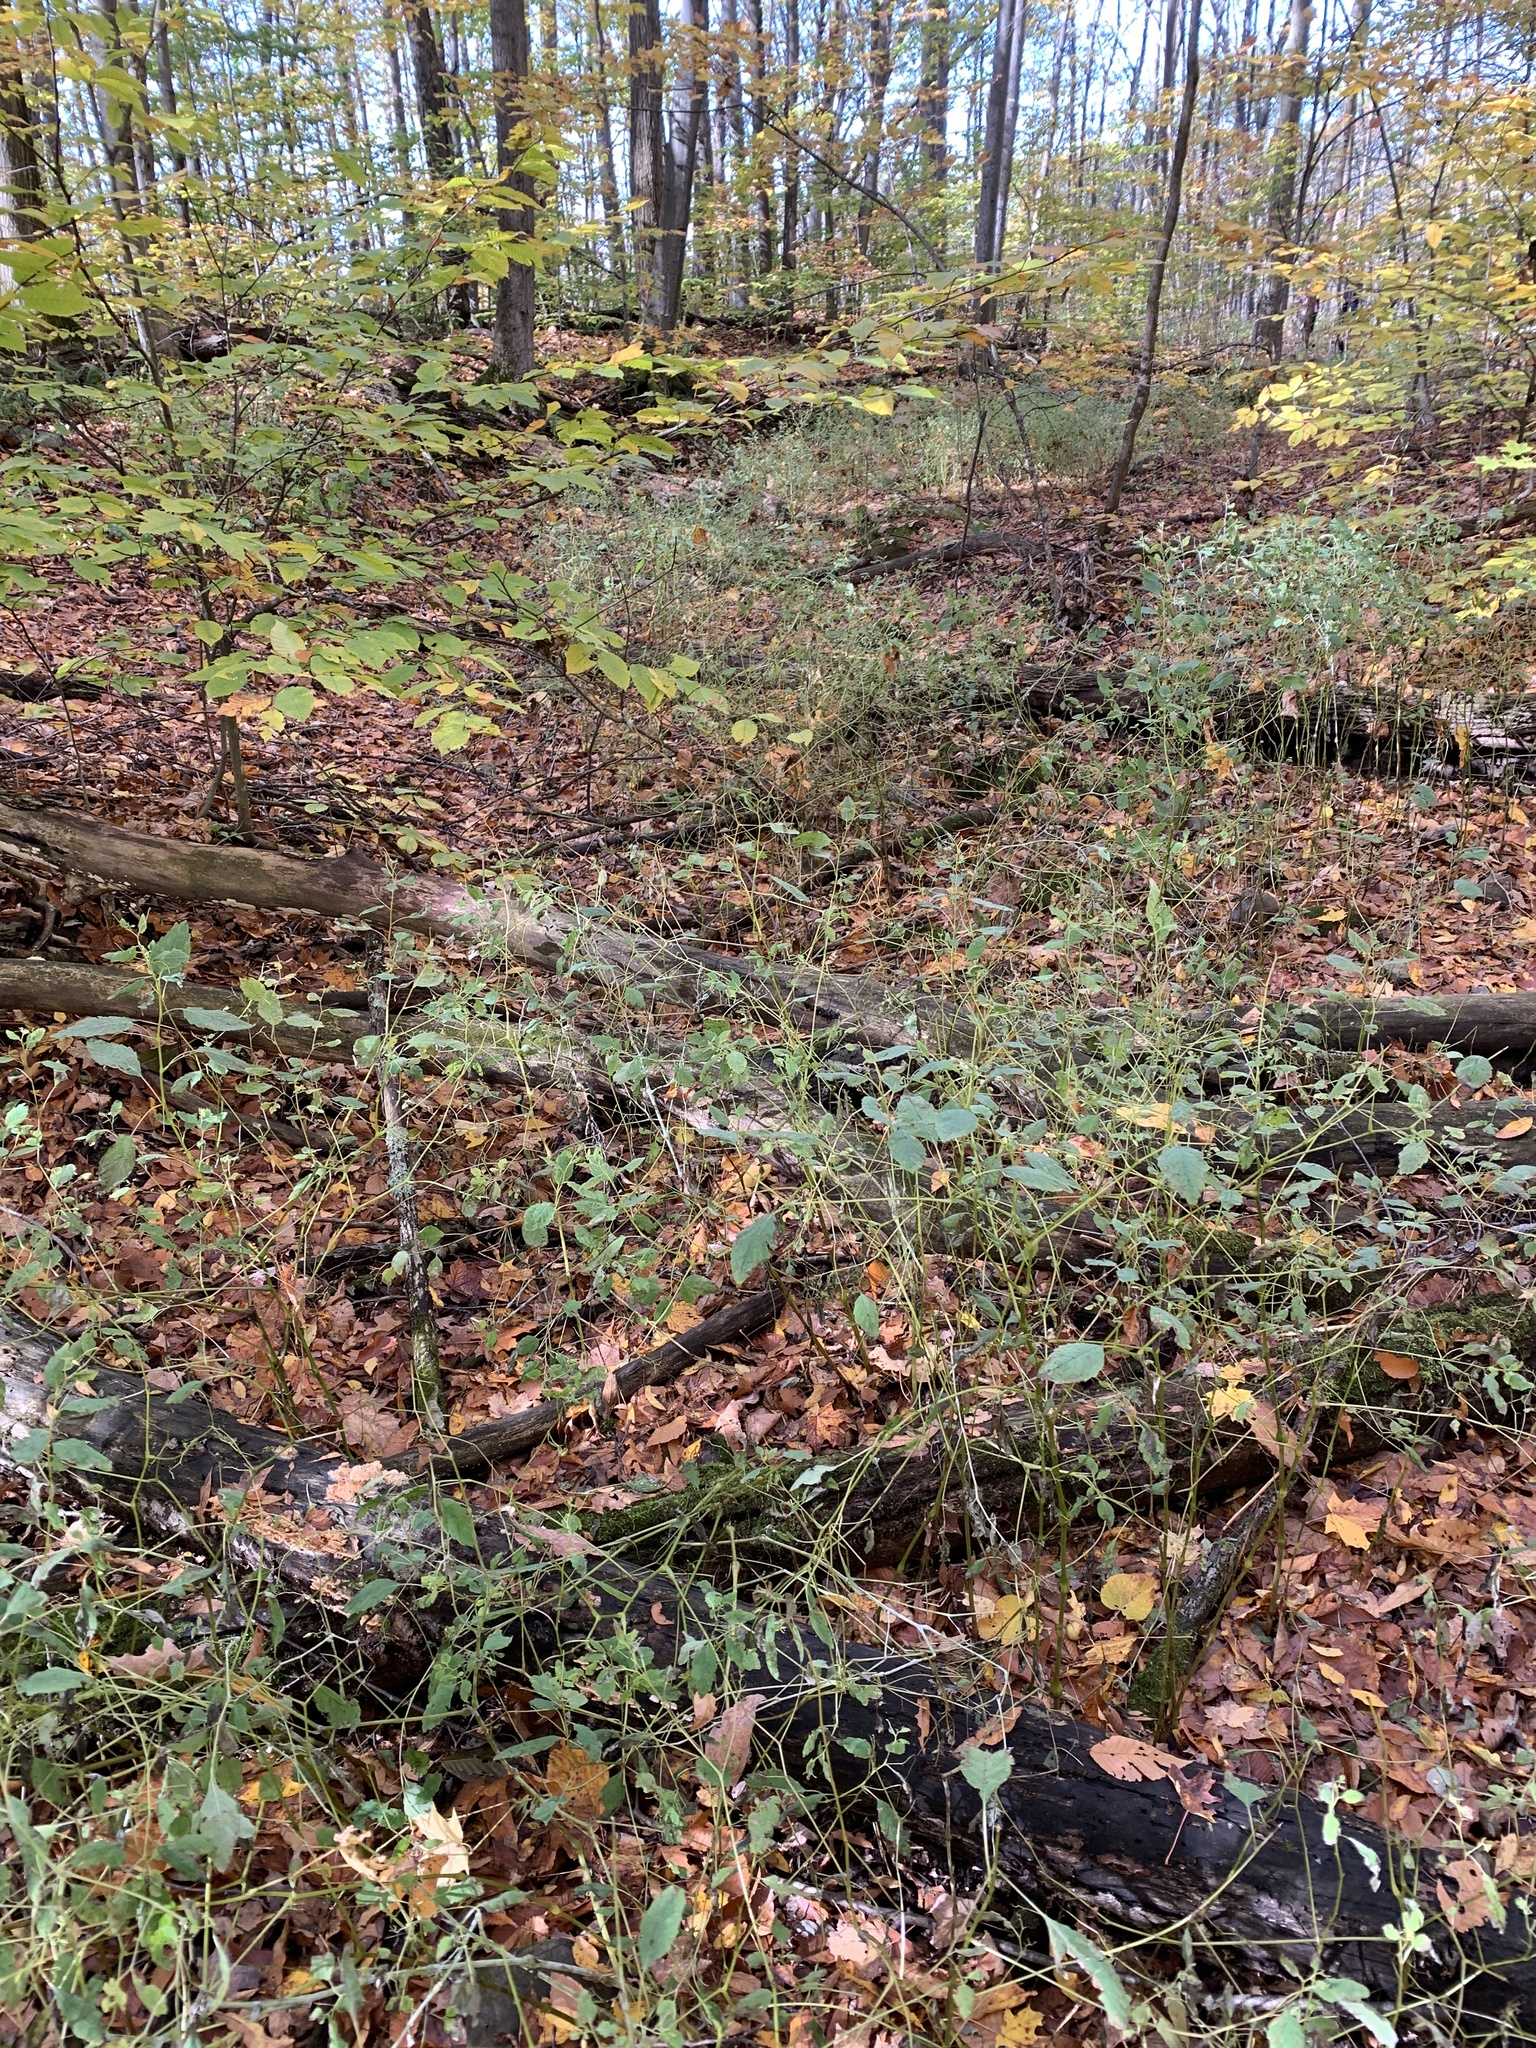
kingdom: Plantae
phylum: Tracheophyta
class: Magnoliopsida
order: Ericales
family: Balsaminaceae
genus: Impatiens
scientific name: Impatiens capensis
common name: Orange balsam
